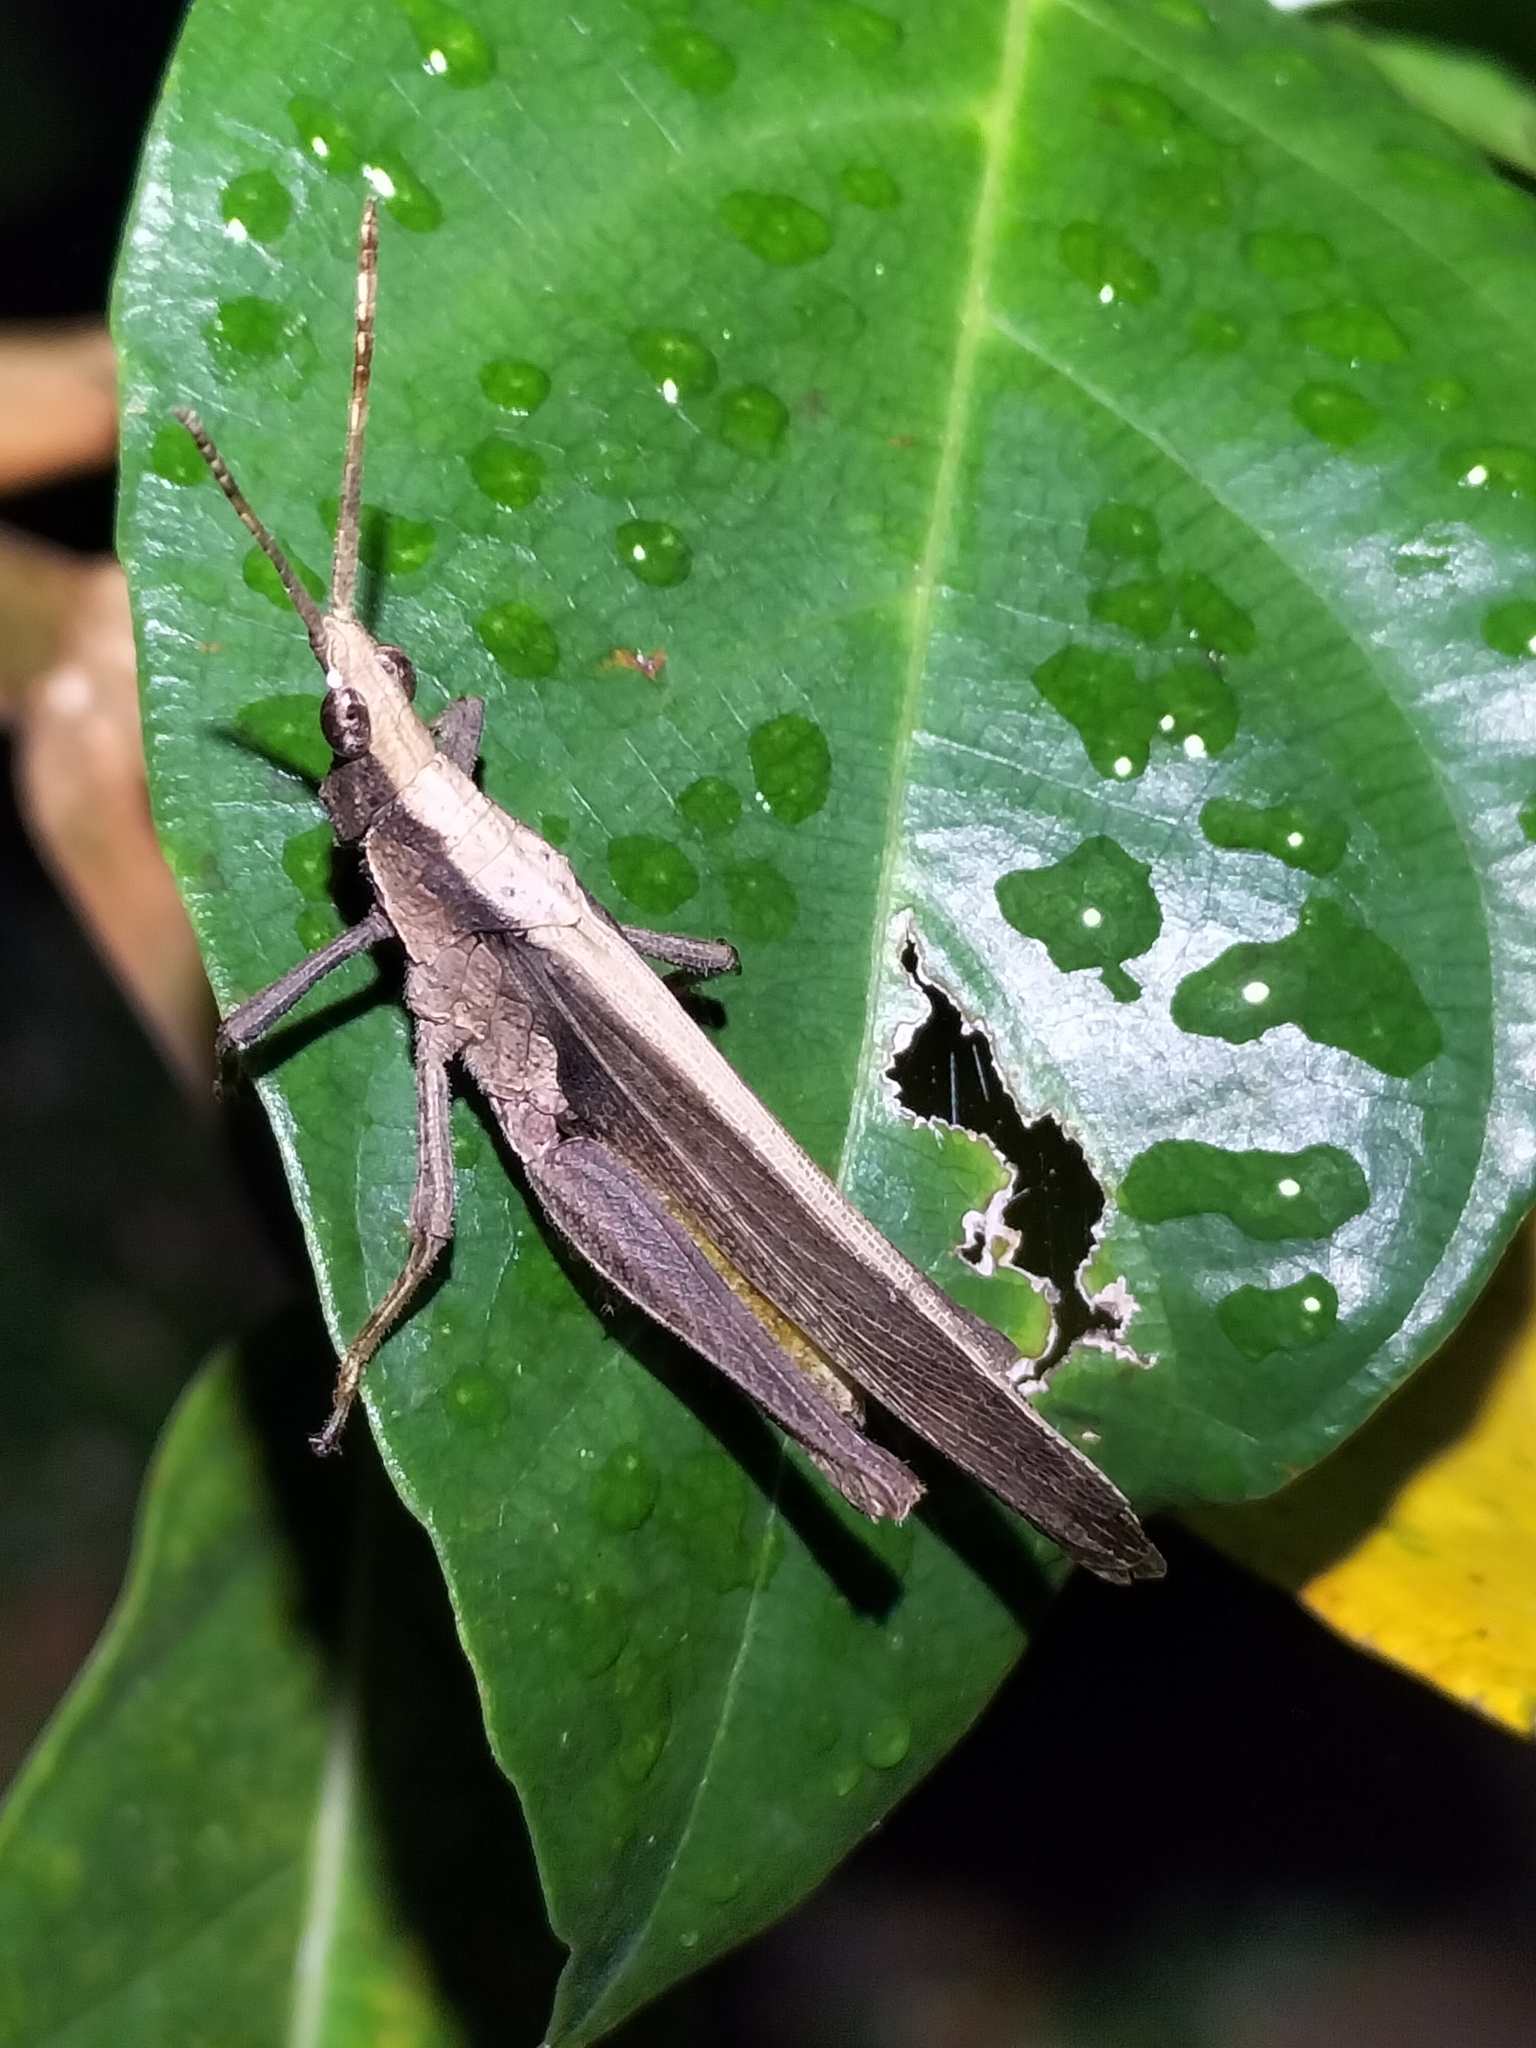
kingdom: Animalia
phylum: Arthropoda
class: Insecta
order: Orthoptera
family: Pyrgomorphidae
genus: Desmoptera
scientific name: Desmoptera truncatipennis
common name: Large forest pyrgomorph
